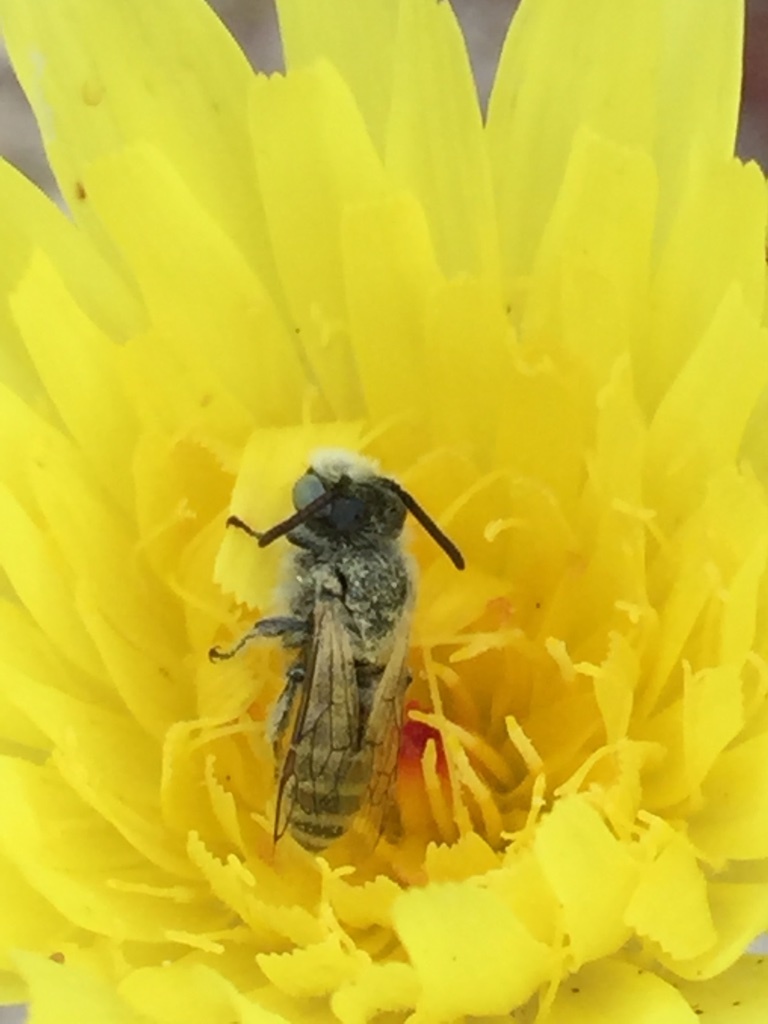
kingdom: Animalia
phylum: Arthropoda
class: Insecta
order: Hymenoptera
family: Melittidae
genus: Hesperapis
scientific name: Hesperapis
